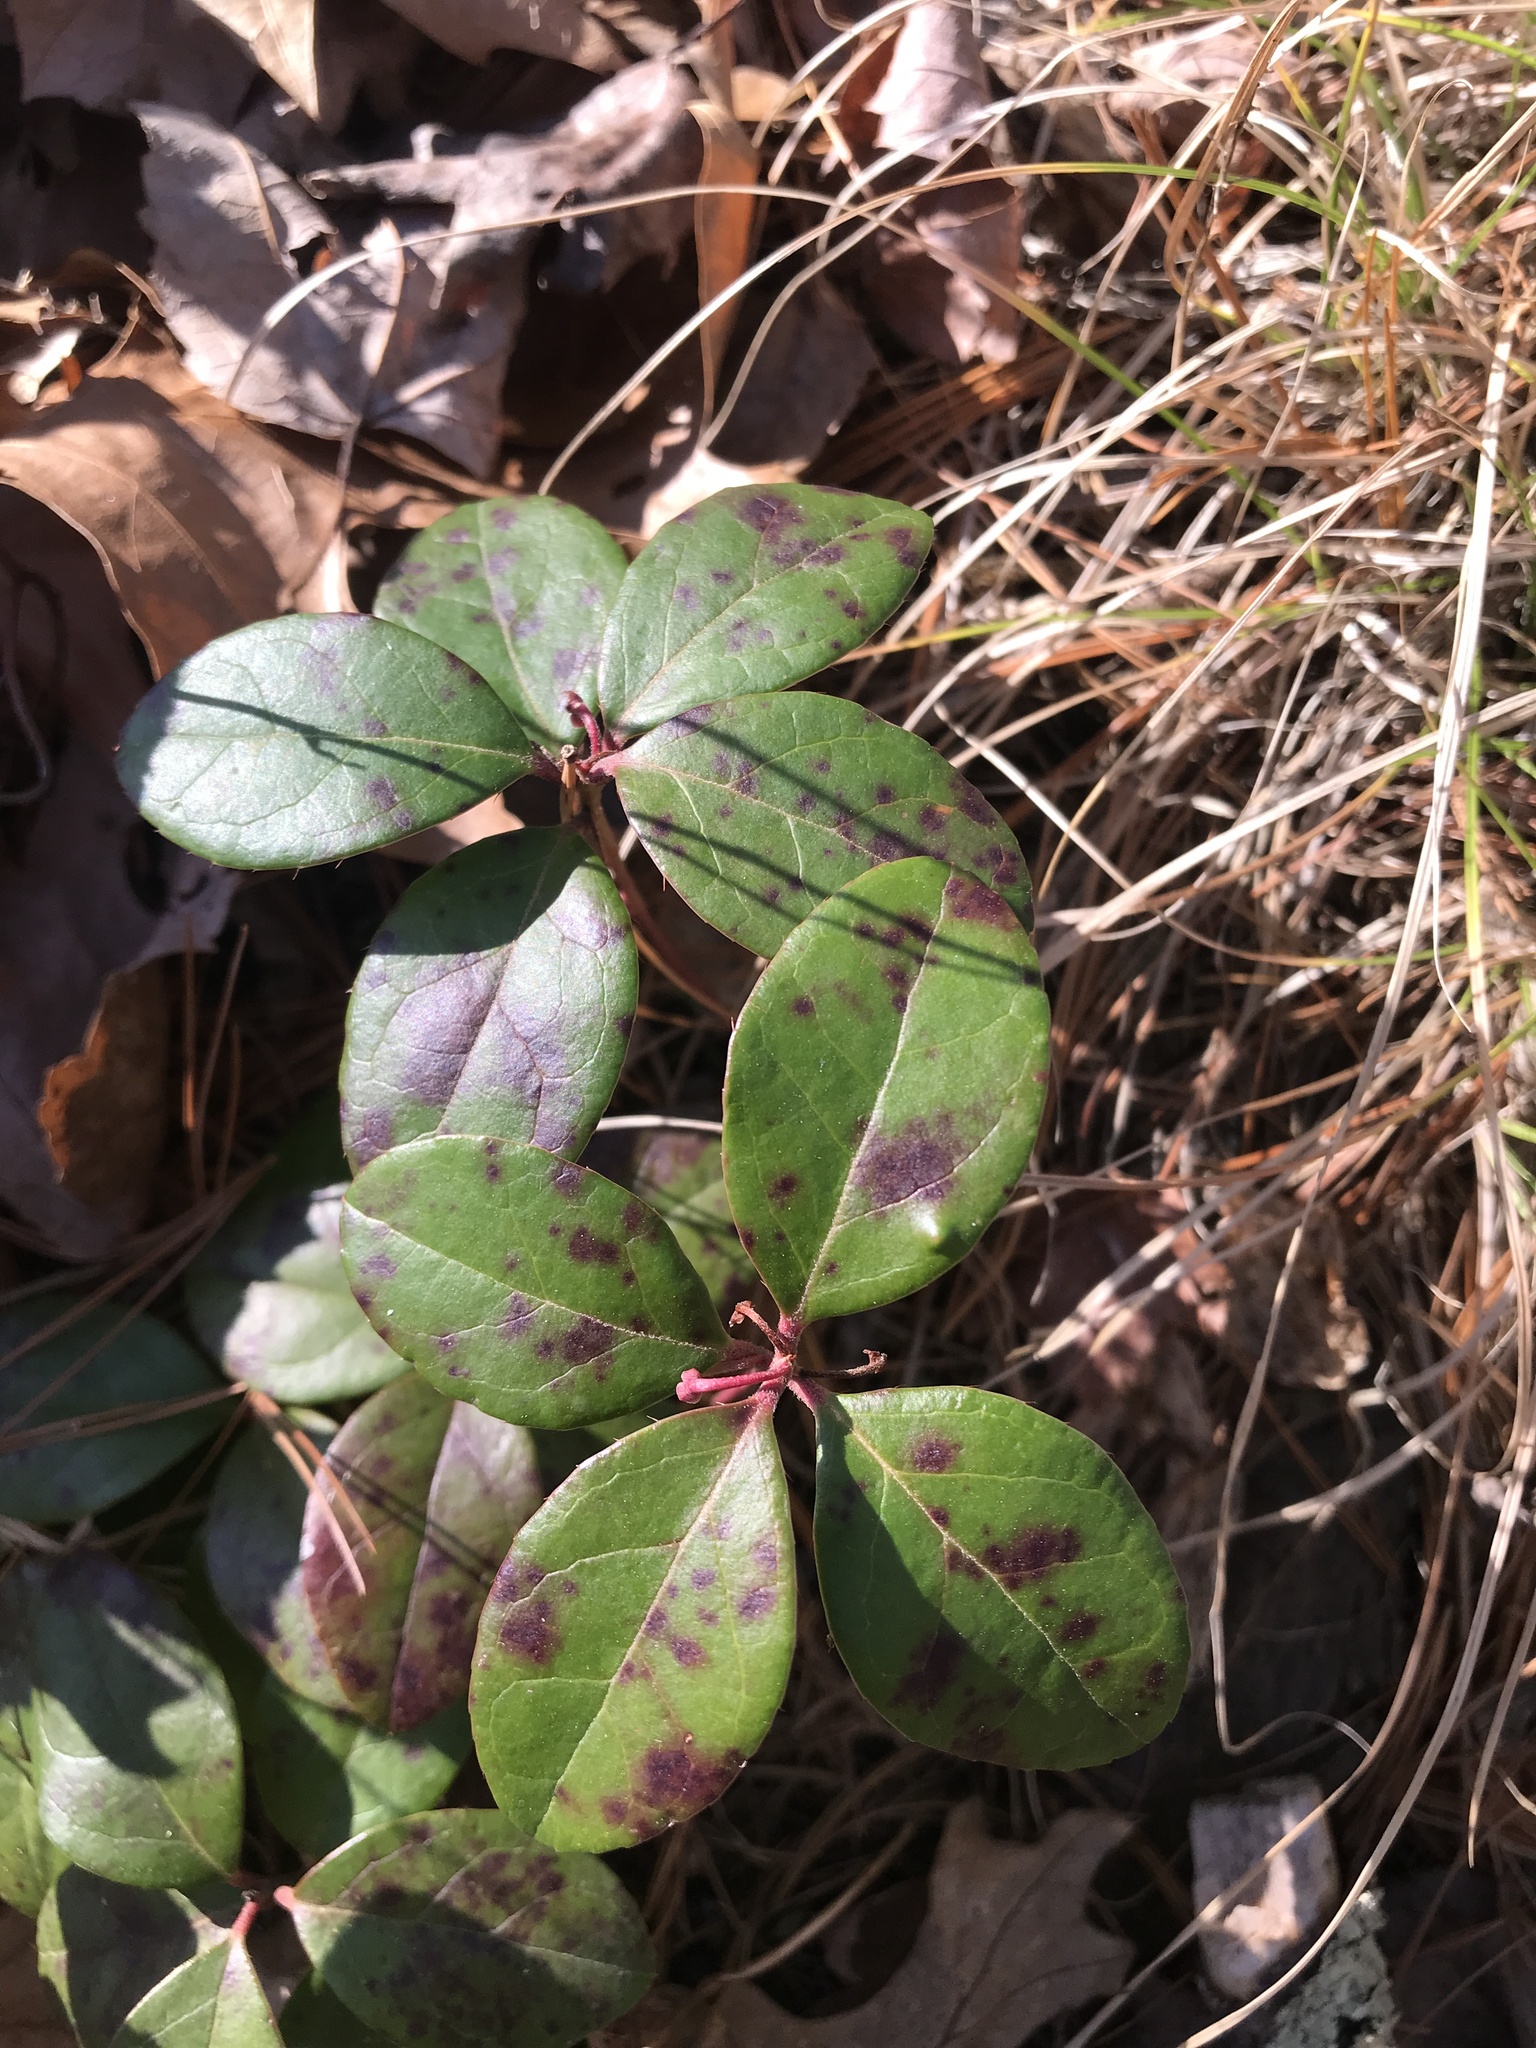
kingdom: Plantae
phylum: Tracheophyta
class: Magnoliopsida
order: Ericales
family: Ericaceae
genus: Gaultheria
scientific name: Gaultheria procumbens
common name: Checkerberry
